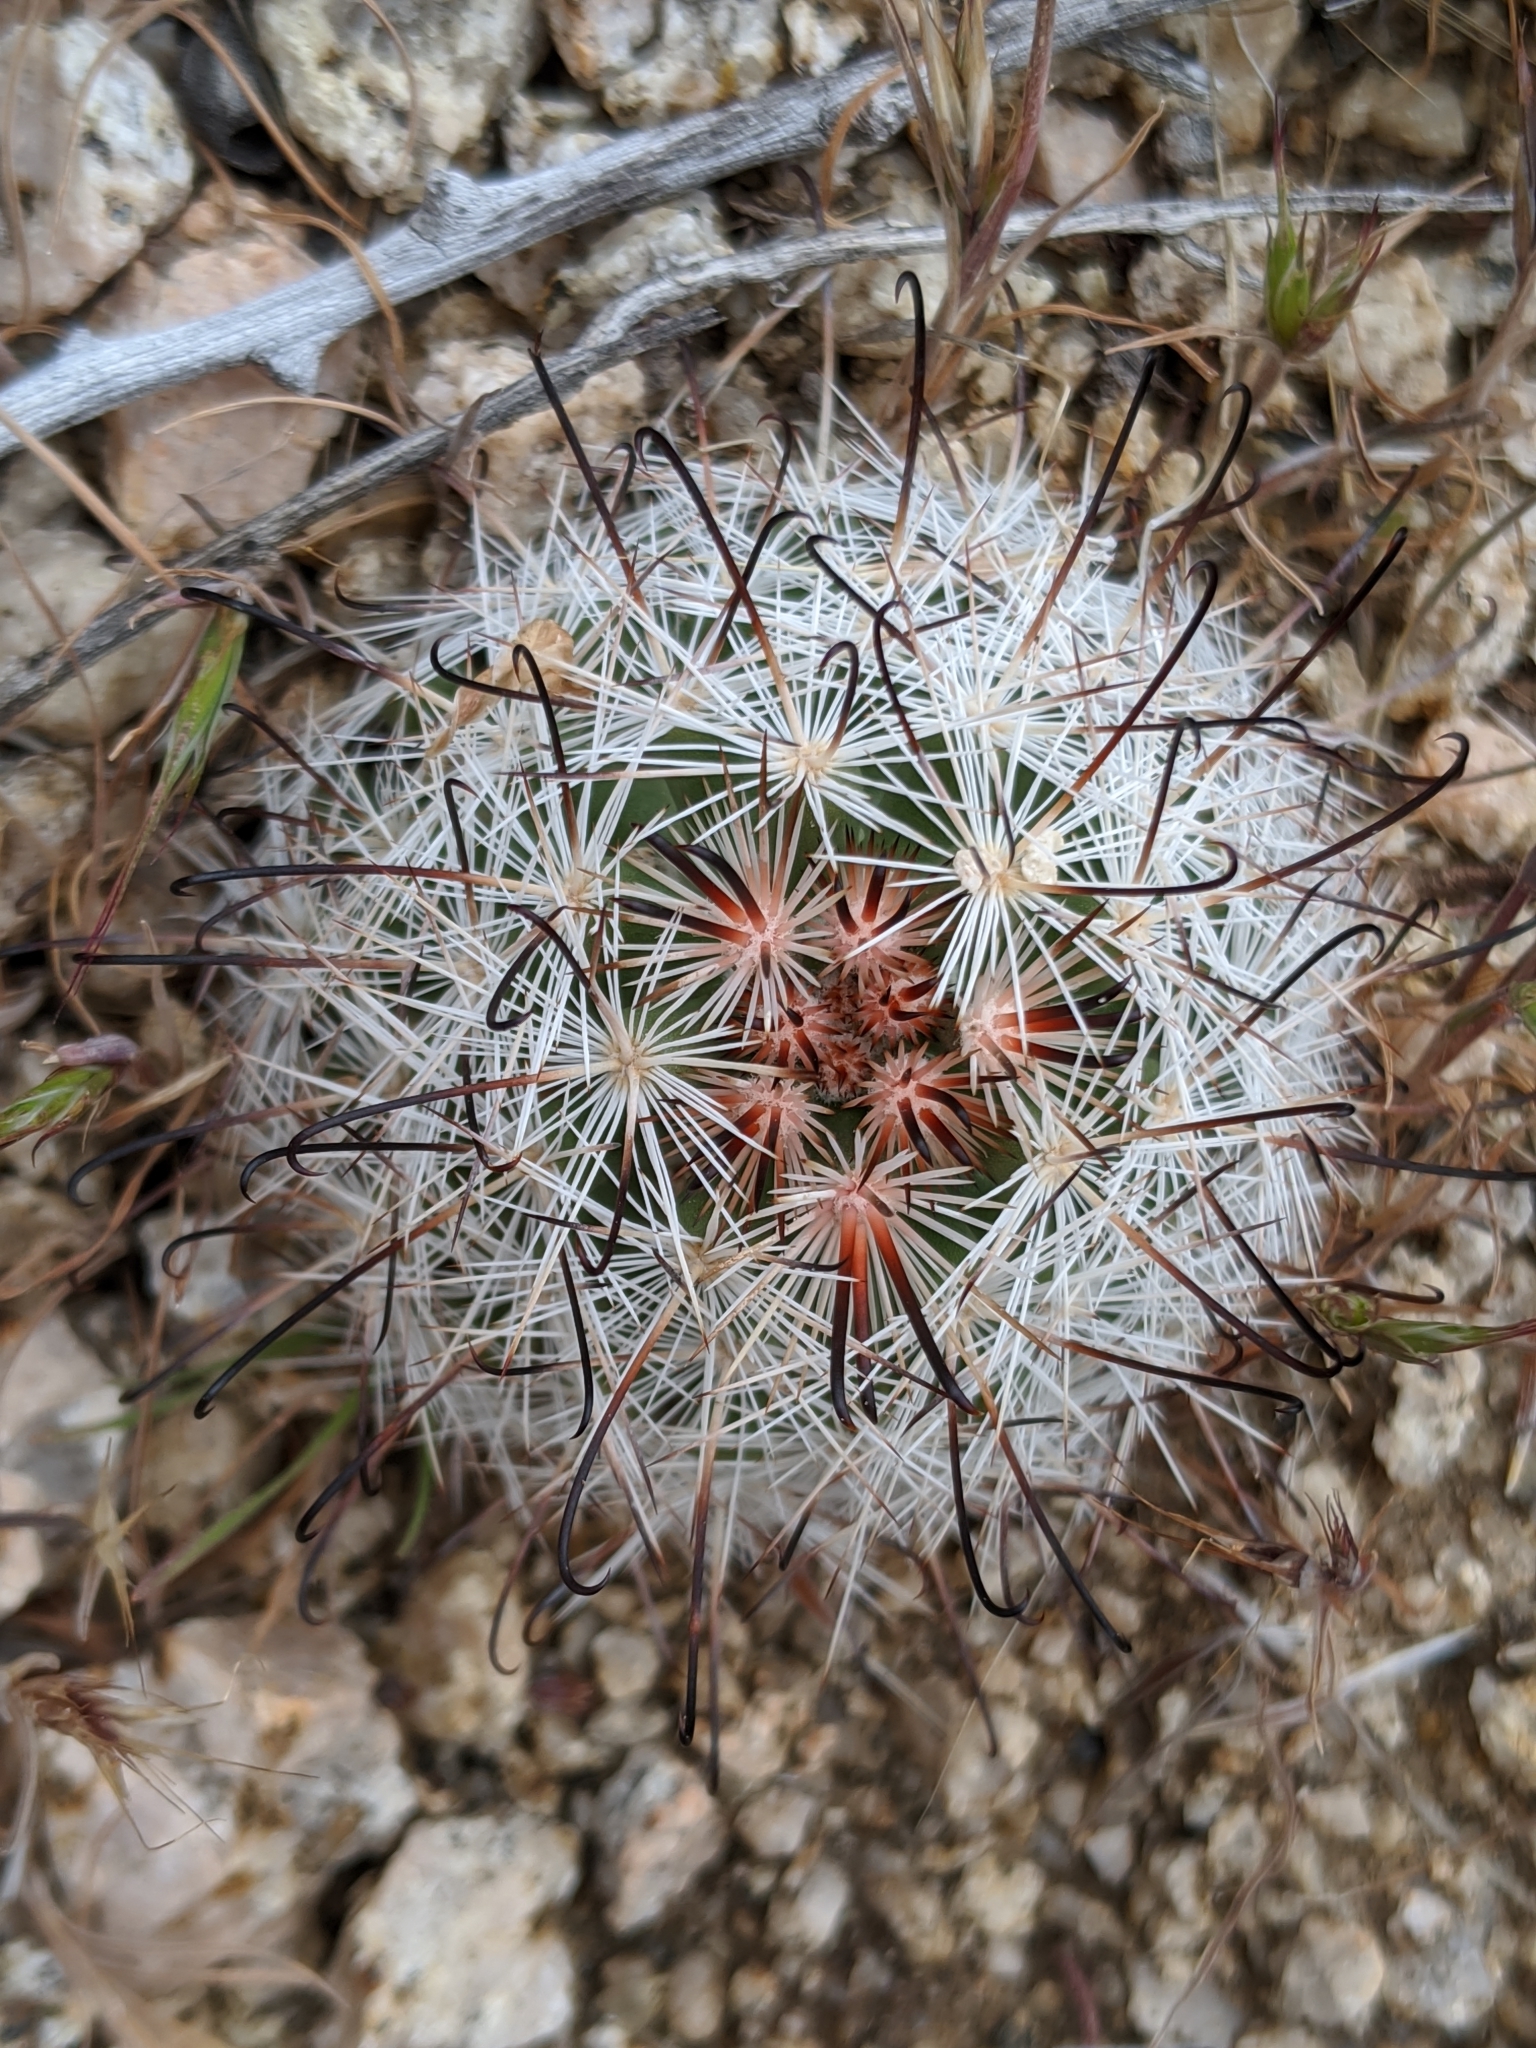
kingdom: Plantae
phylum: Tracheophyta
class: Magnoliopsida
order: Caryophyllales
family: Cactaceae
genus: Cochemiea
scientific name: Cochemiea tetrancistra
